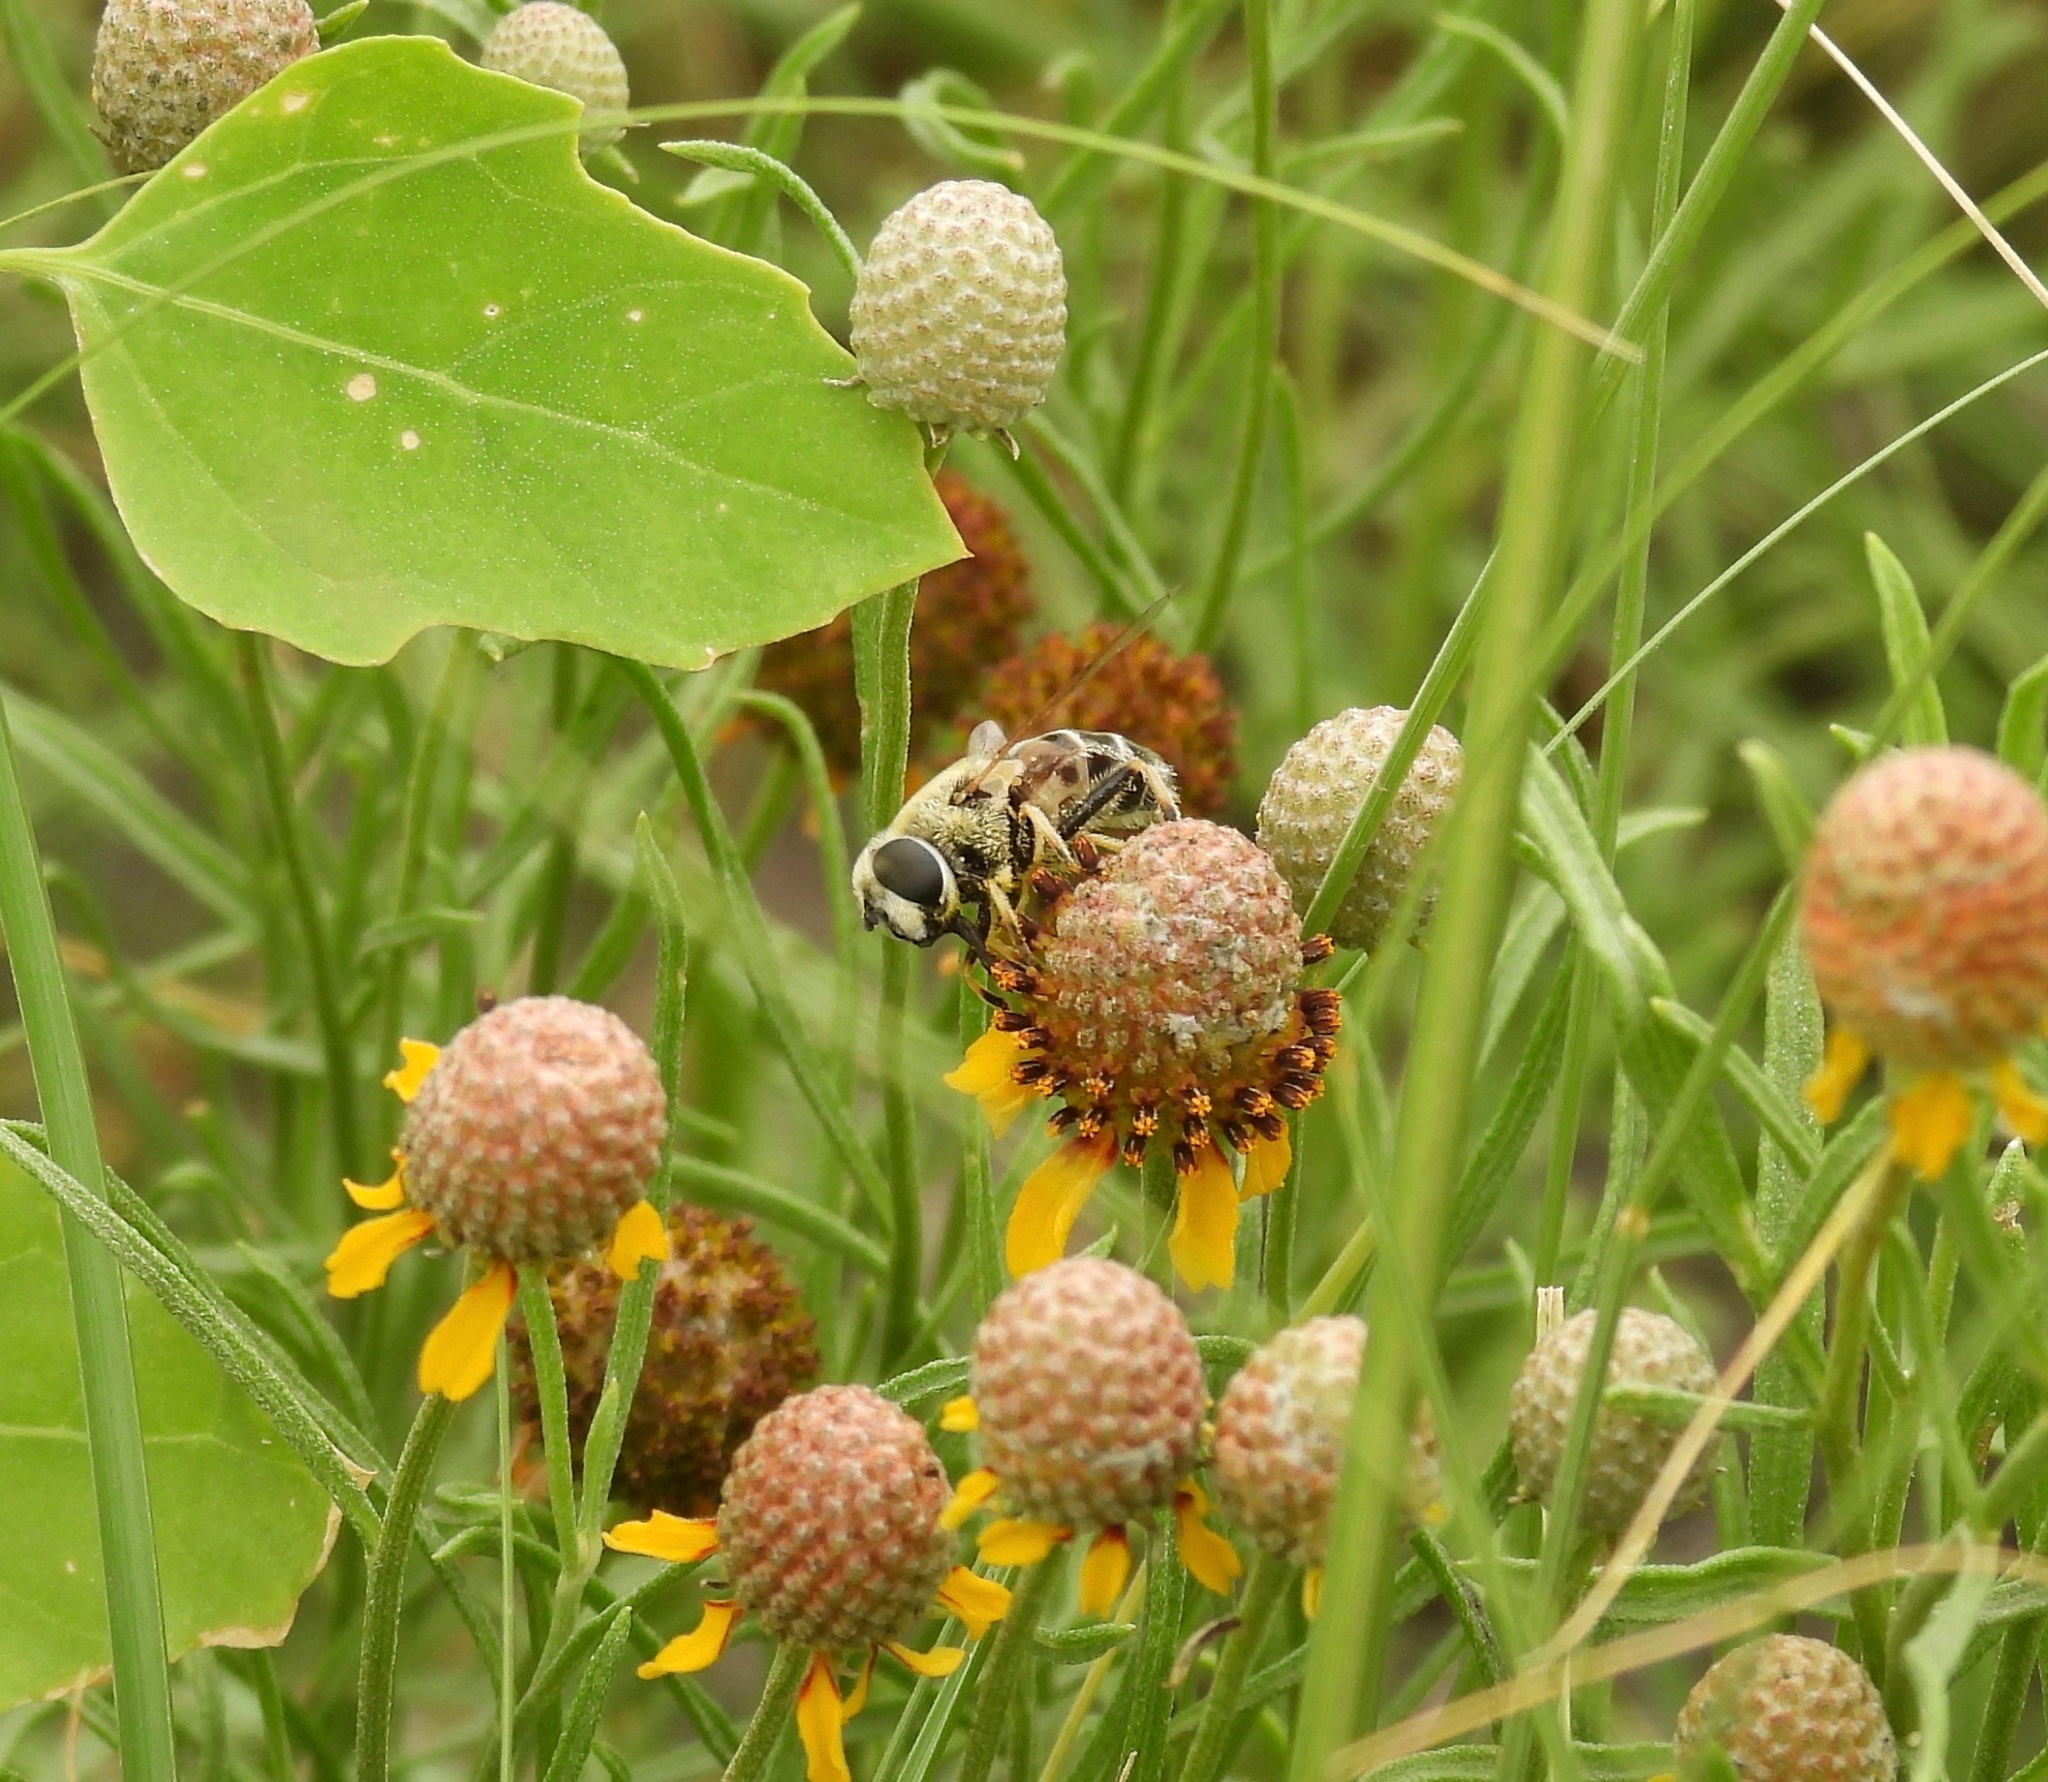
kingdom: Animalia
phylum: Arthropoda
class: Insecta
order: Diptera
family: Syrphidae
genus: Eristalis
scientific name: Eristalis stipator
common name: Yellow-shouldered drone fly
